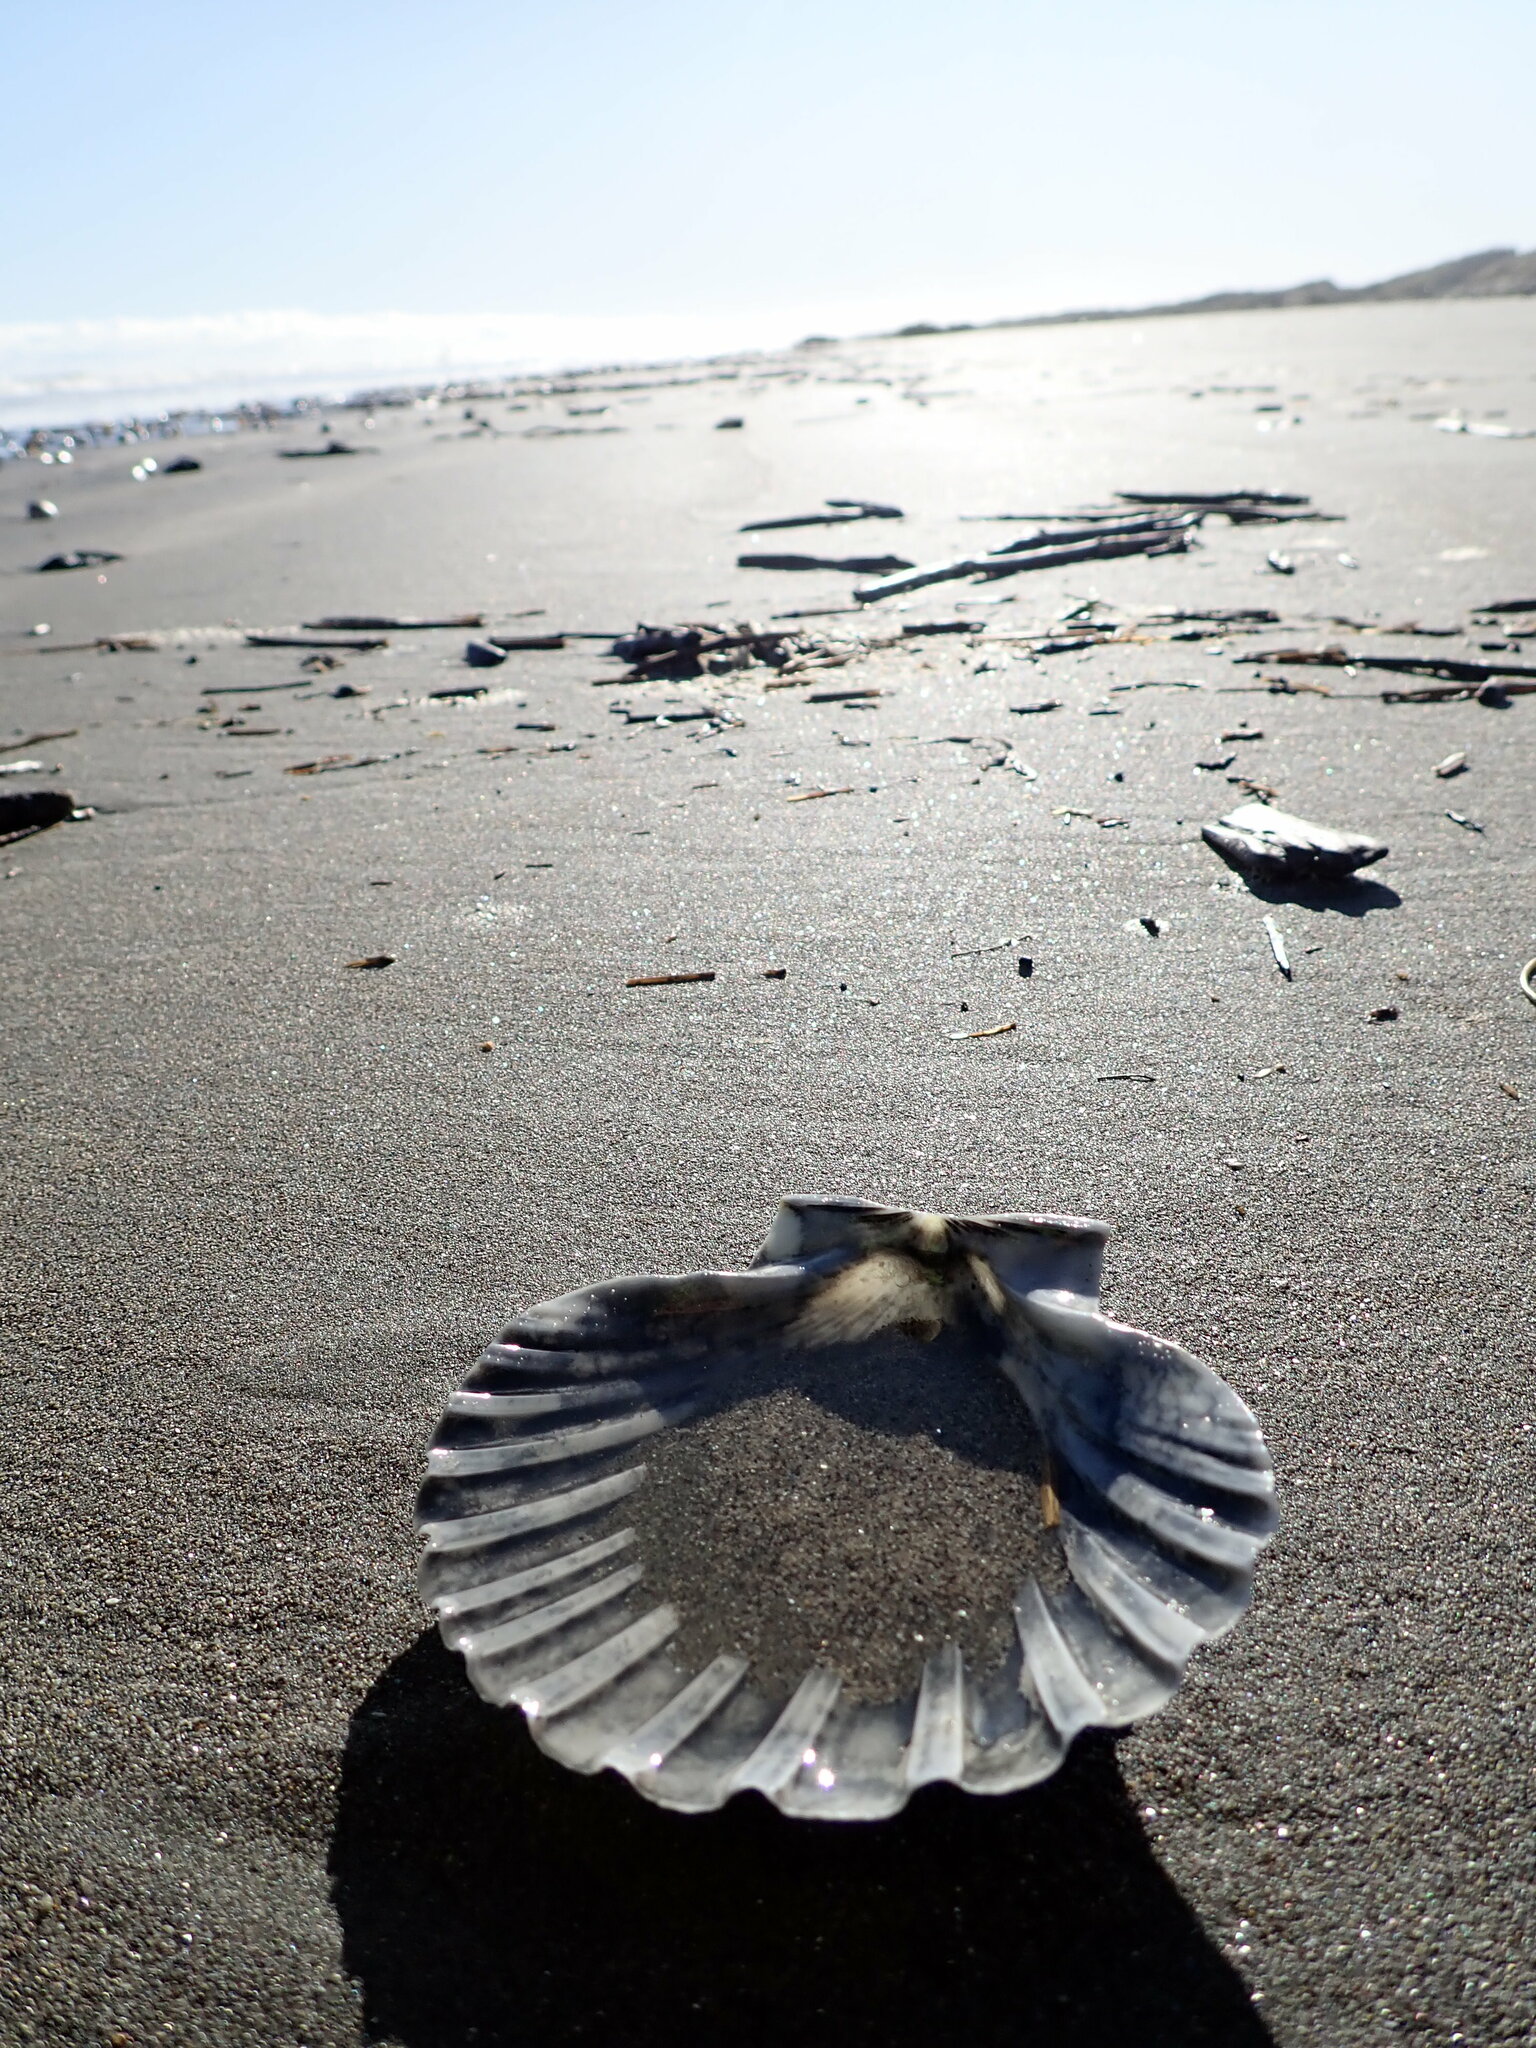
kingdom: Animalia
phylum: Mollusca
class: Bivalvia
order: Pectinida
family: Pectinidae
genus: Pecten
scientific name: Pecten novaezelandiae
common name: New zealand scallop
